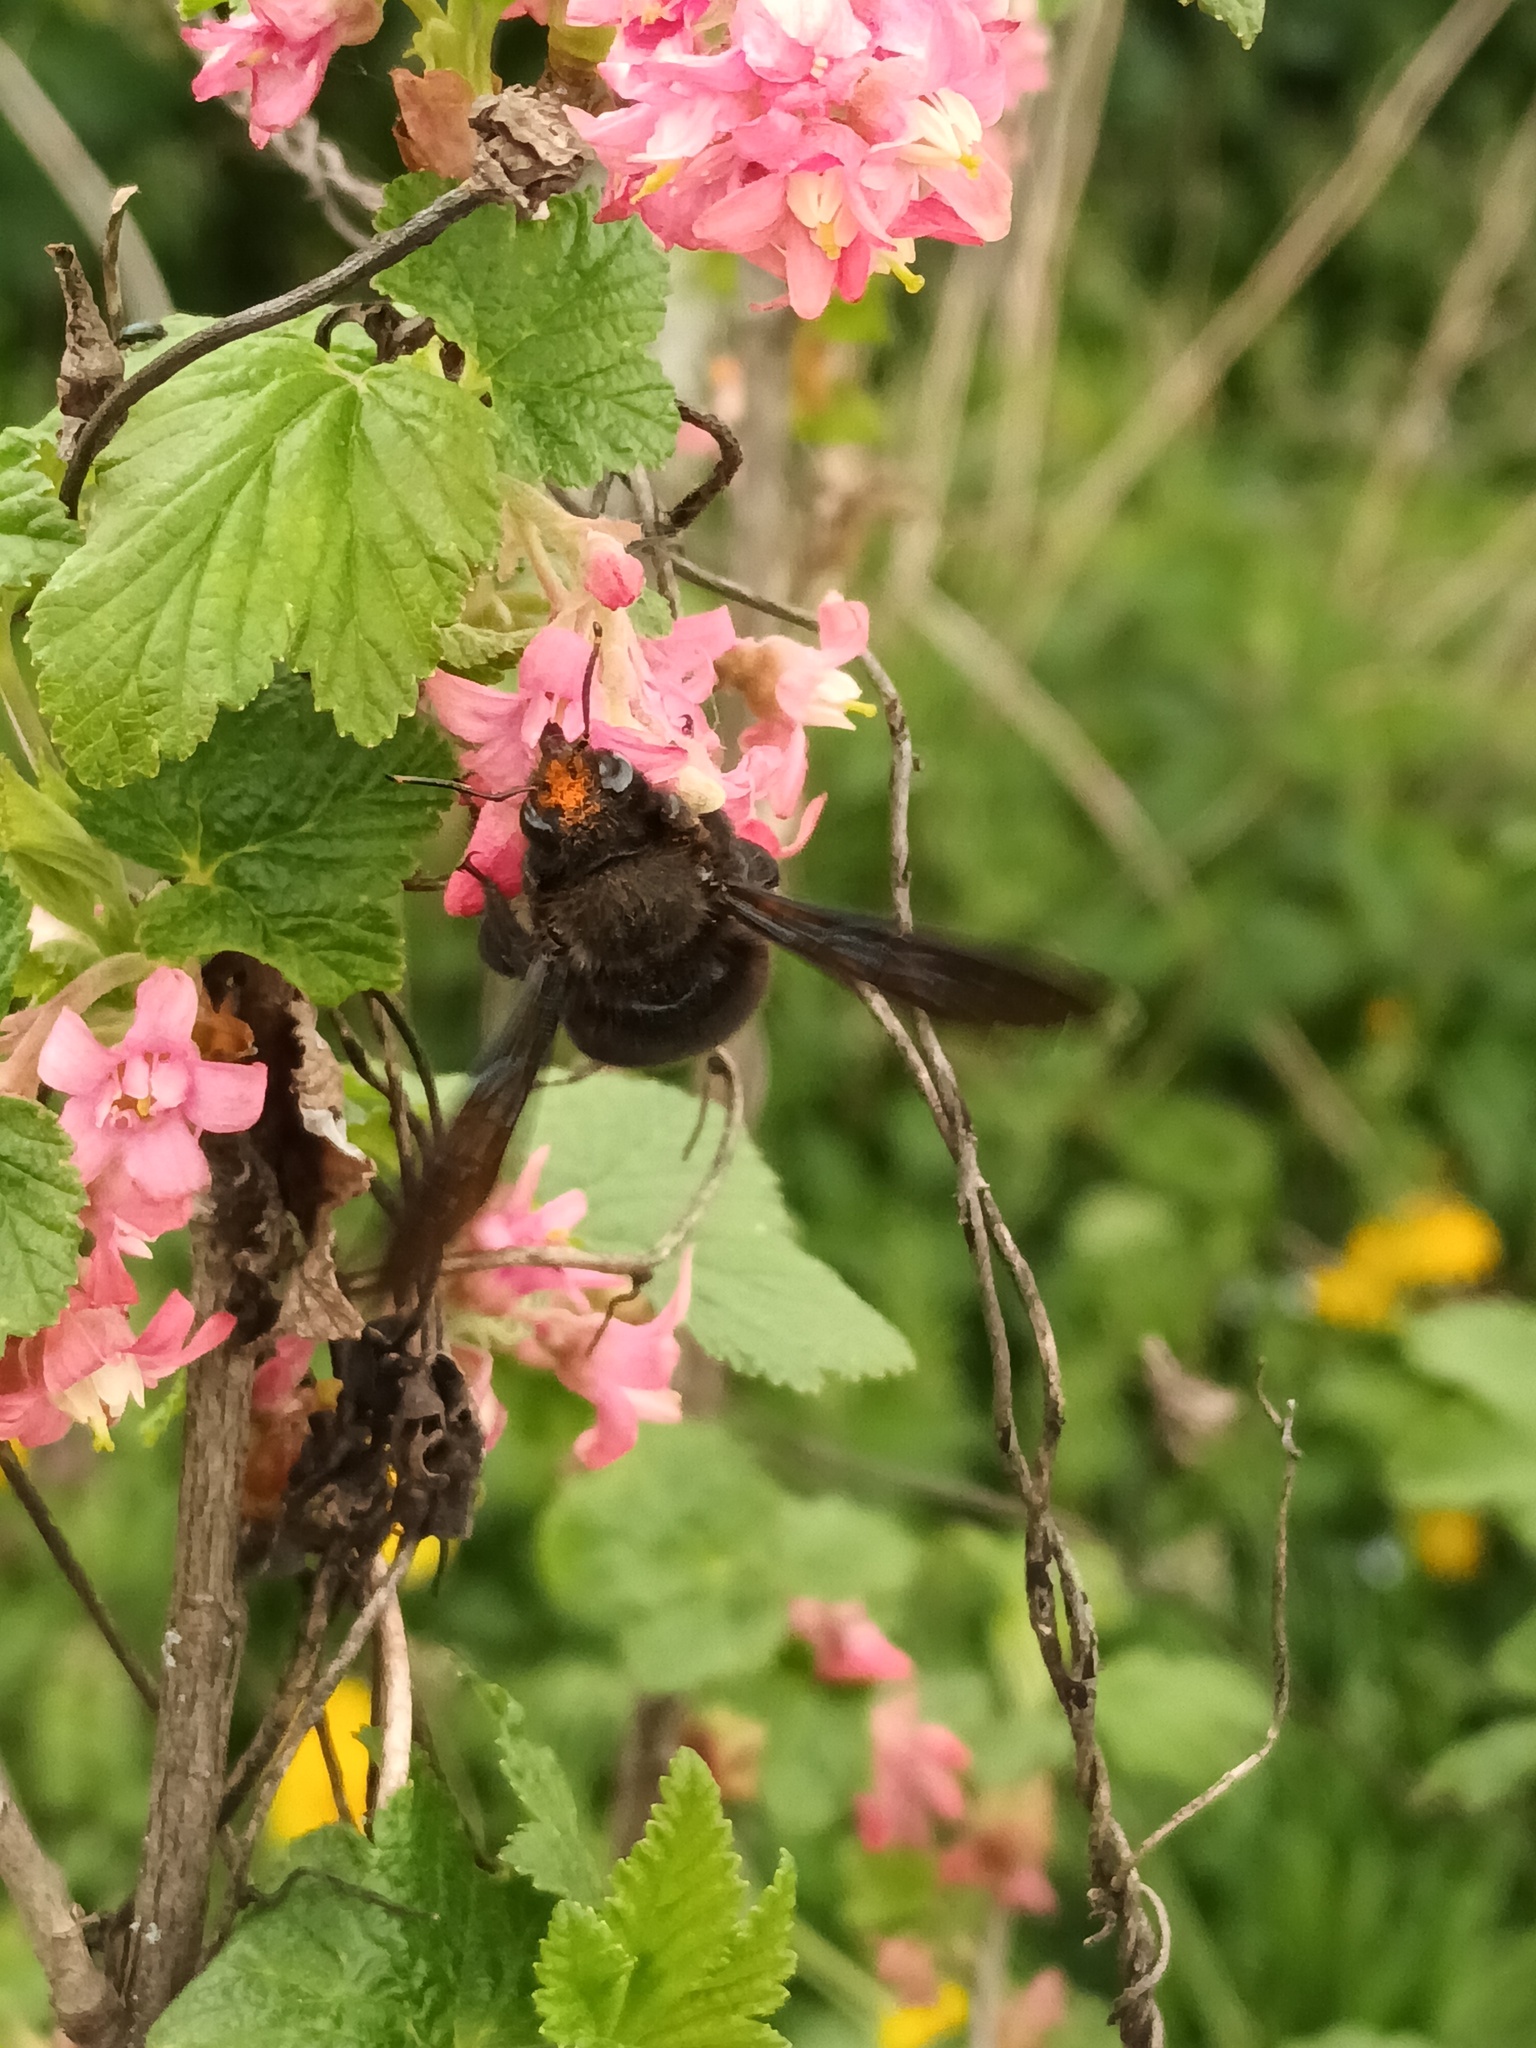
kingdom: Animalia
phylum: Arthropoda
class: Insecta
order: Hymenoptera
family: Apidae
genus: Xylocopa
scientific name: Xylocopa violacea
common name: Violet carpenter bee
